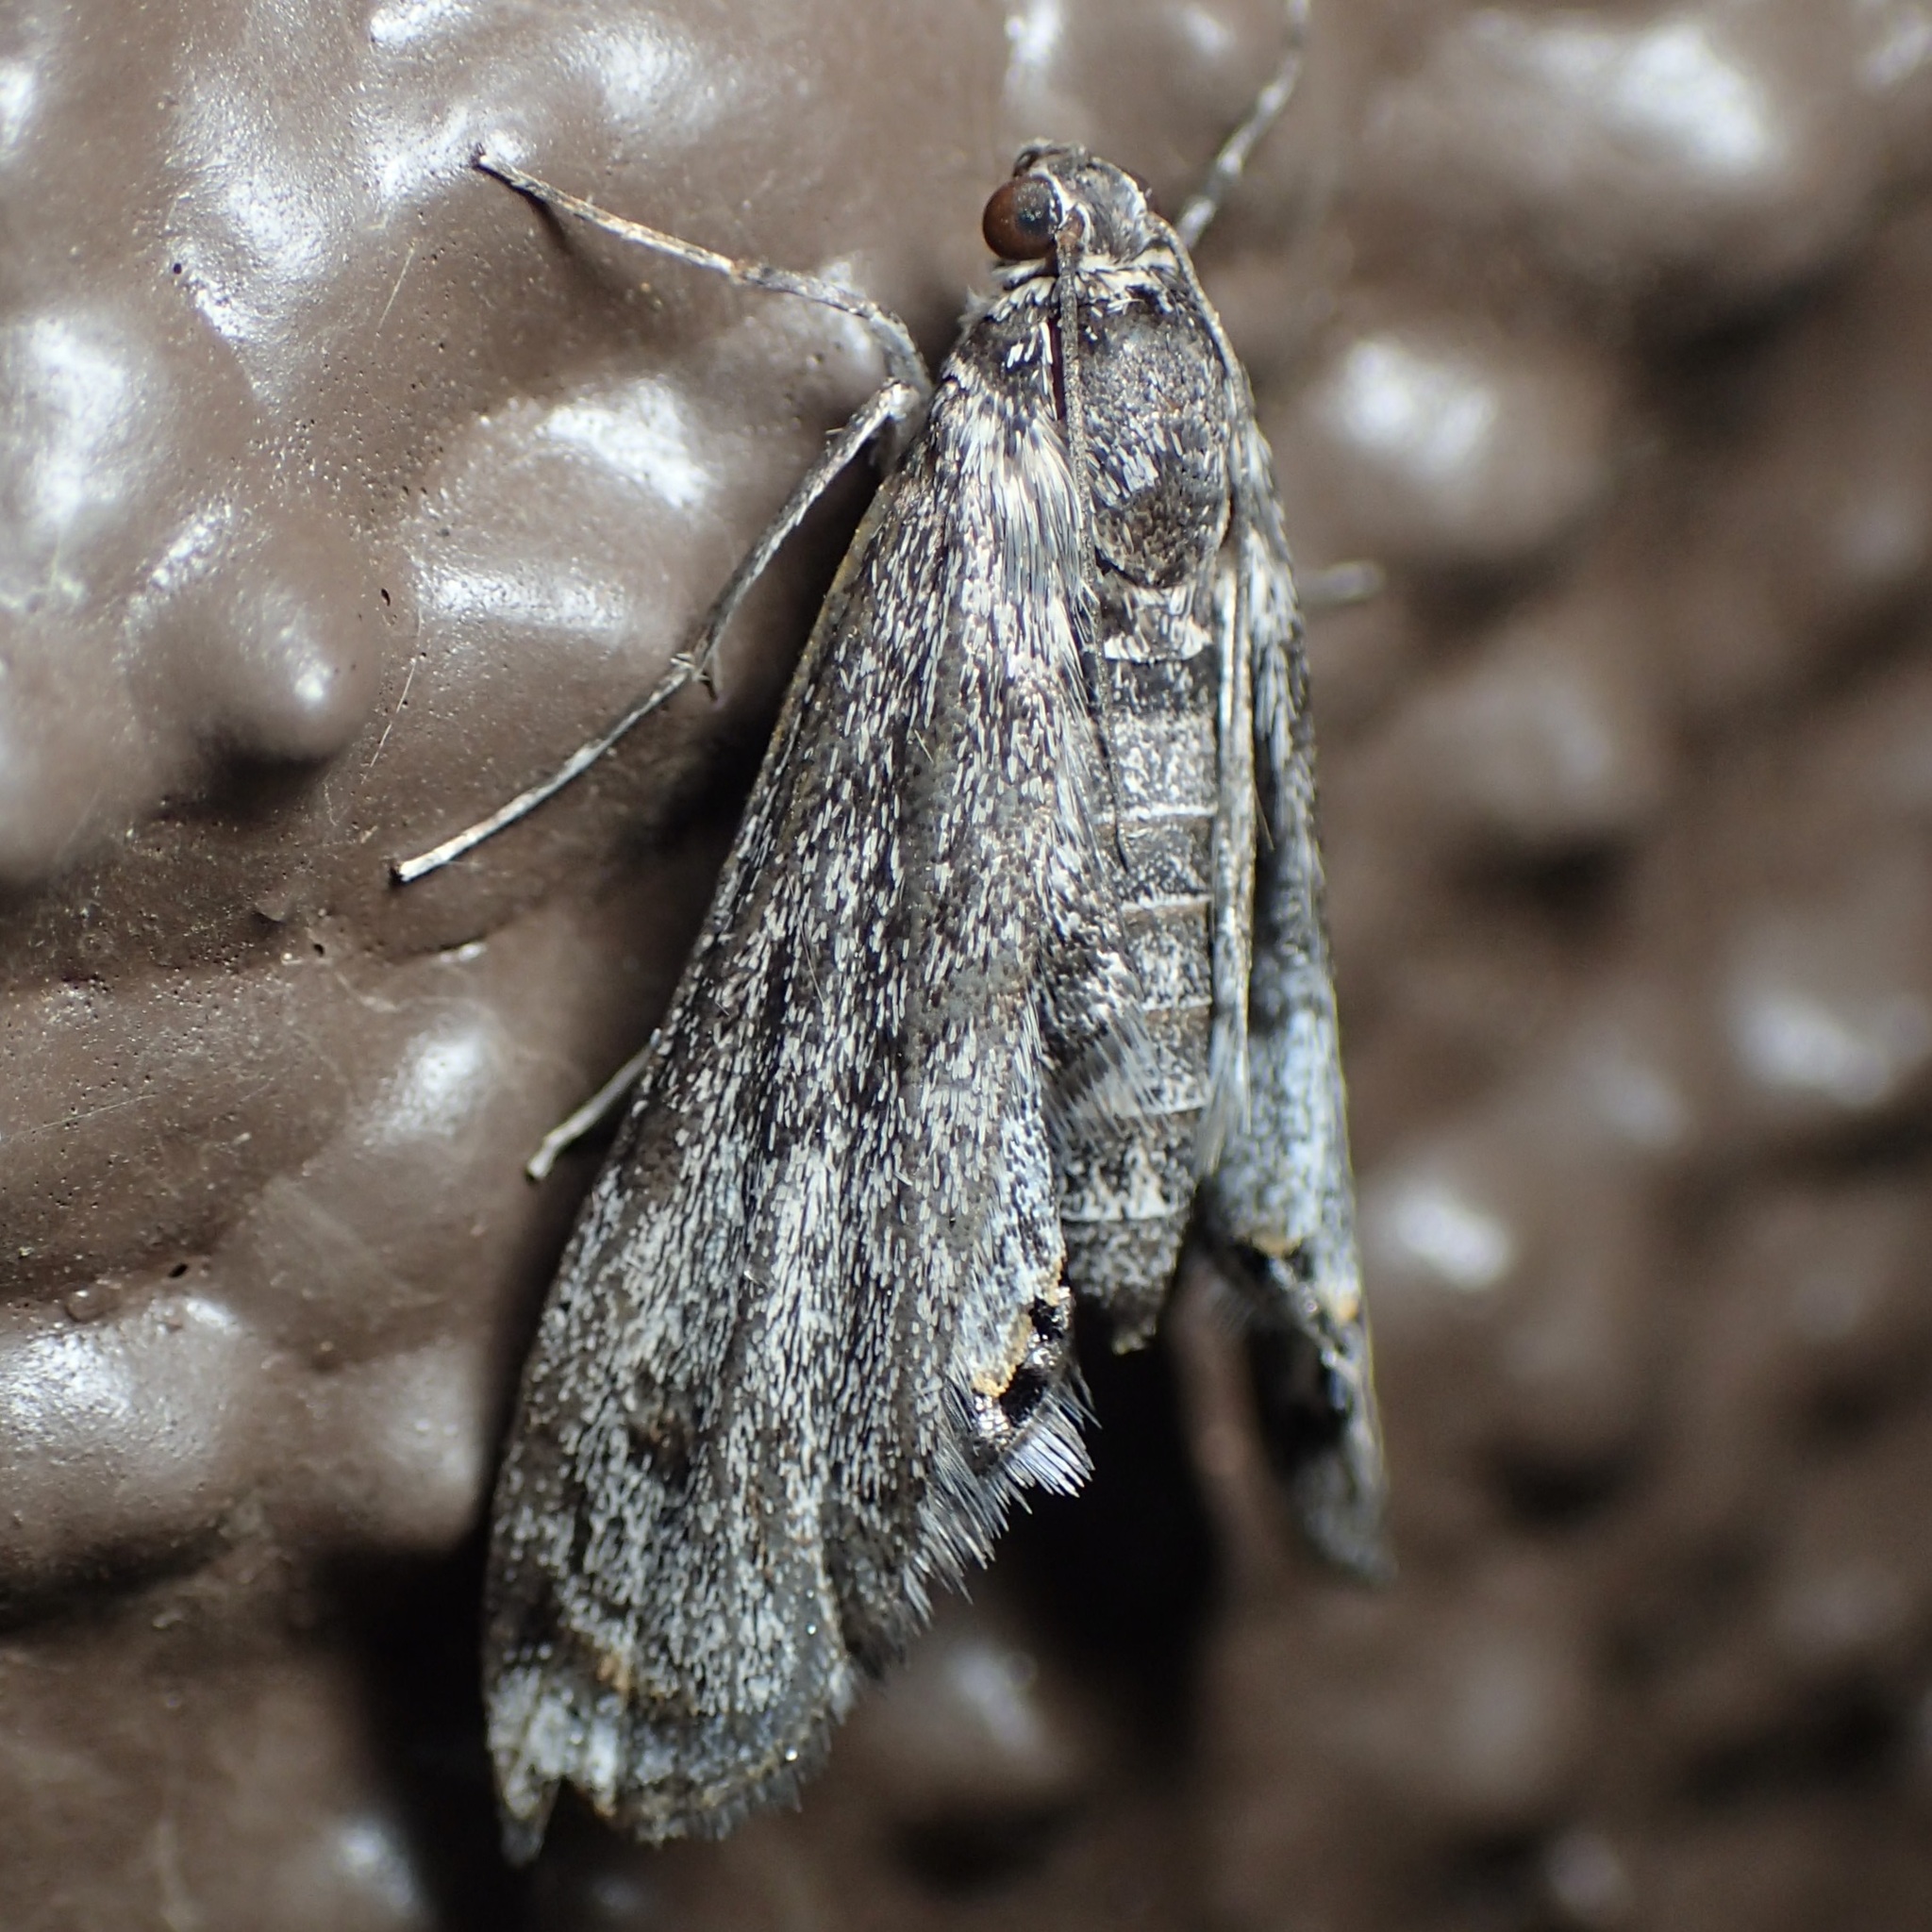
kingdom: Animalia
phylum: Arthropoda
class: Insecta
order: Lepidoptera
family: Crambidae
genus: Petrophila
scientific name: Petrophila schaefferalis
